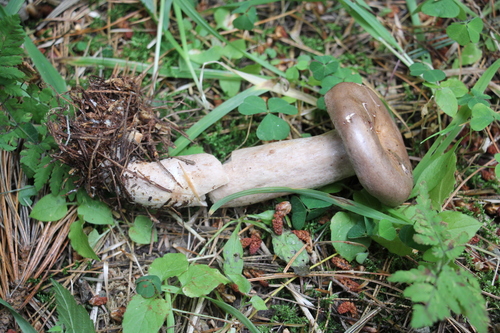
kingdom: Fungi
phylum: Basidiomycota
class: Agaricomycetes
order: Russulales
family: Russulaceae
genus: Lactarius
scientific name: Lactarius trivialis
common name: Tacked milkcap
